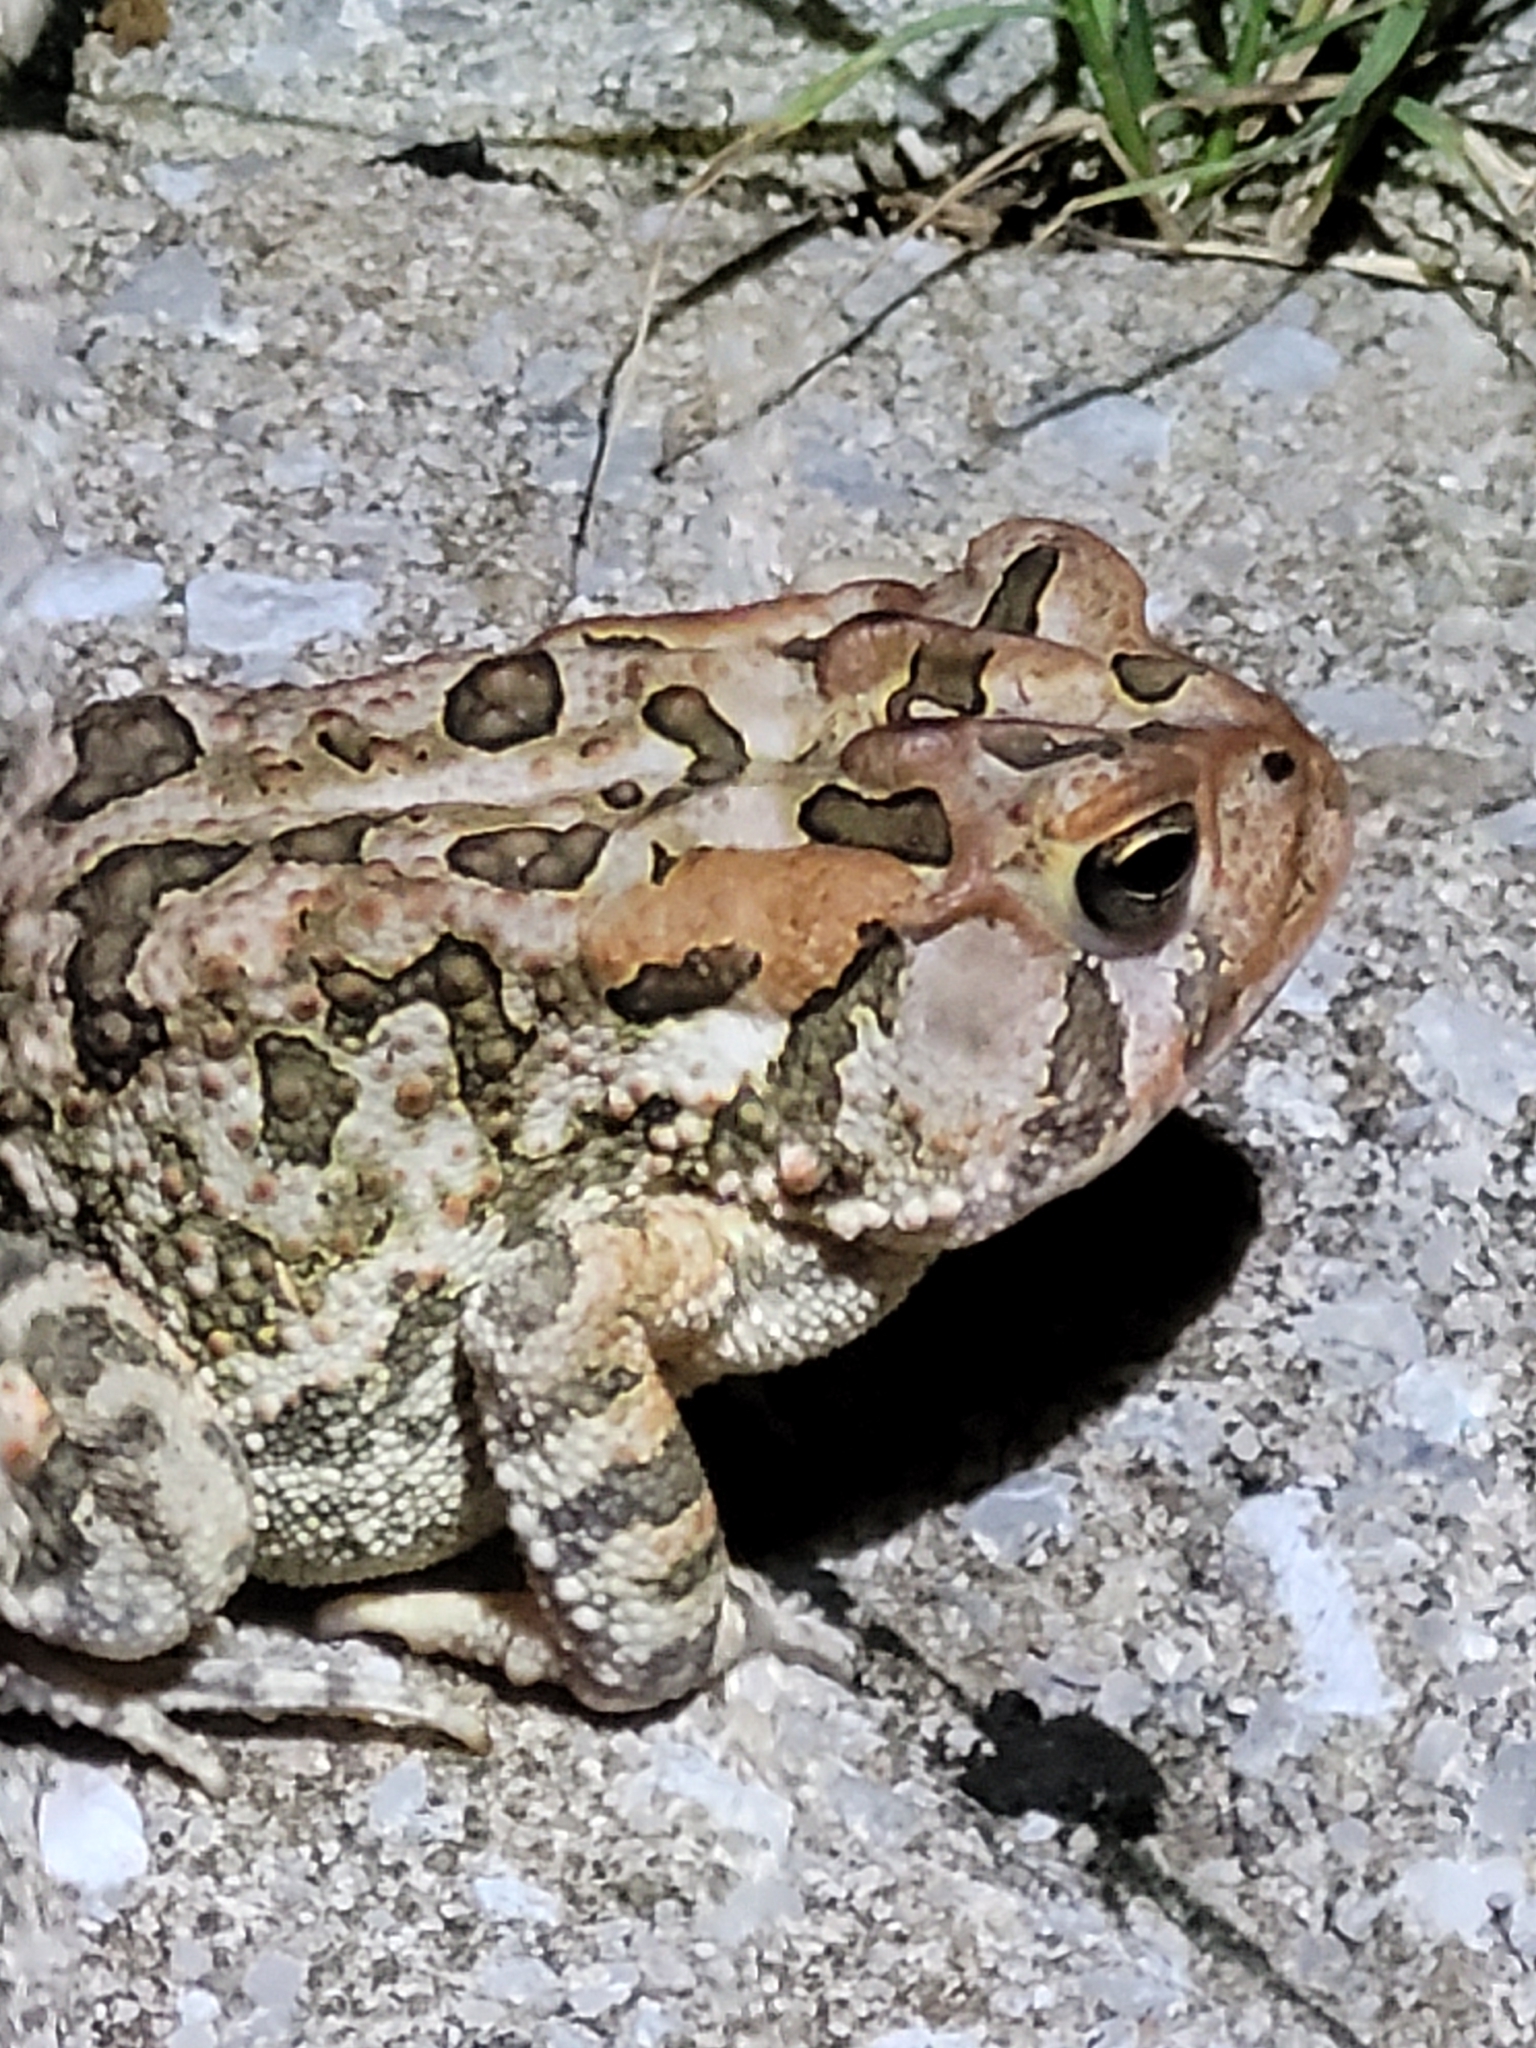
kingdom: Animalia
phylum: Chordata
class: Amphibia
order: Anura
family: Bufonidae
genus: Anaxyrus
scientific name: Anaxyrus terrestris
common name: Southern toad
